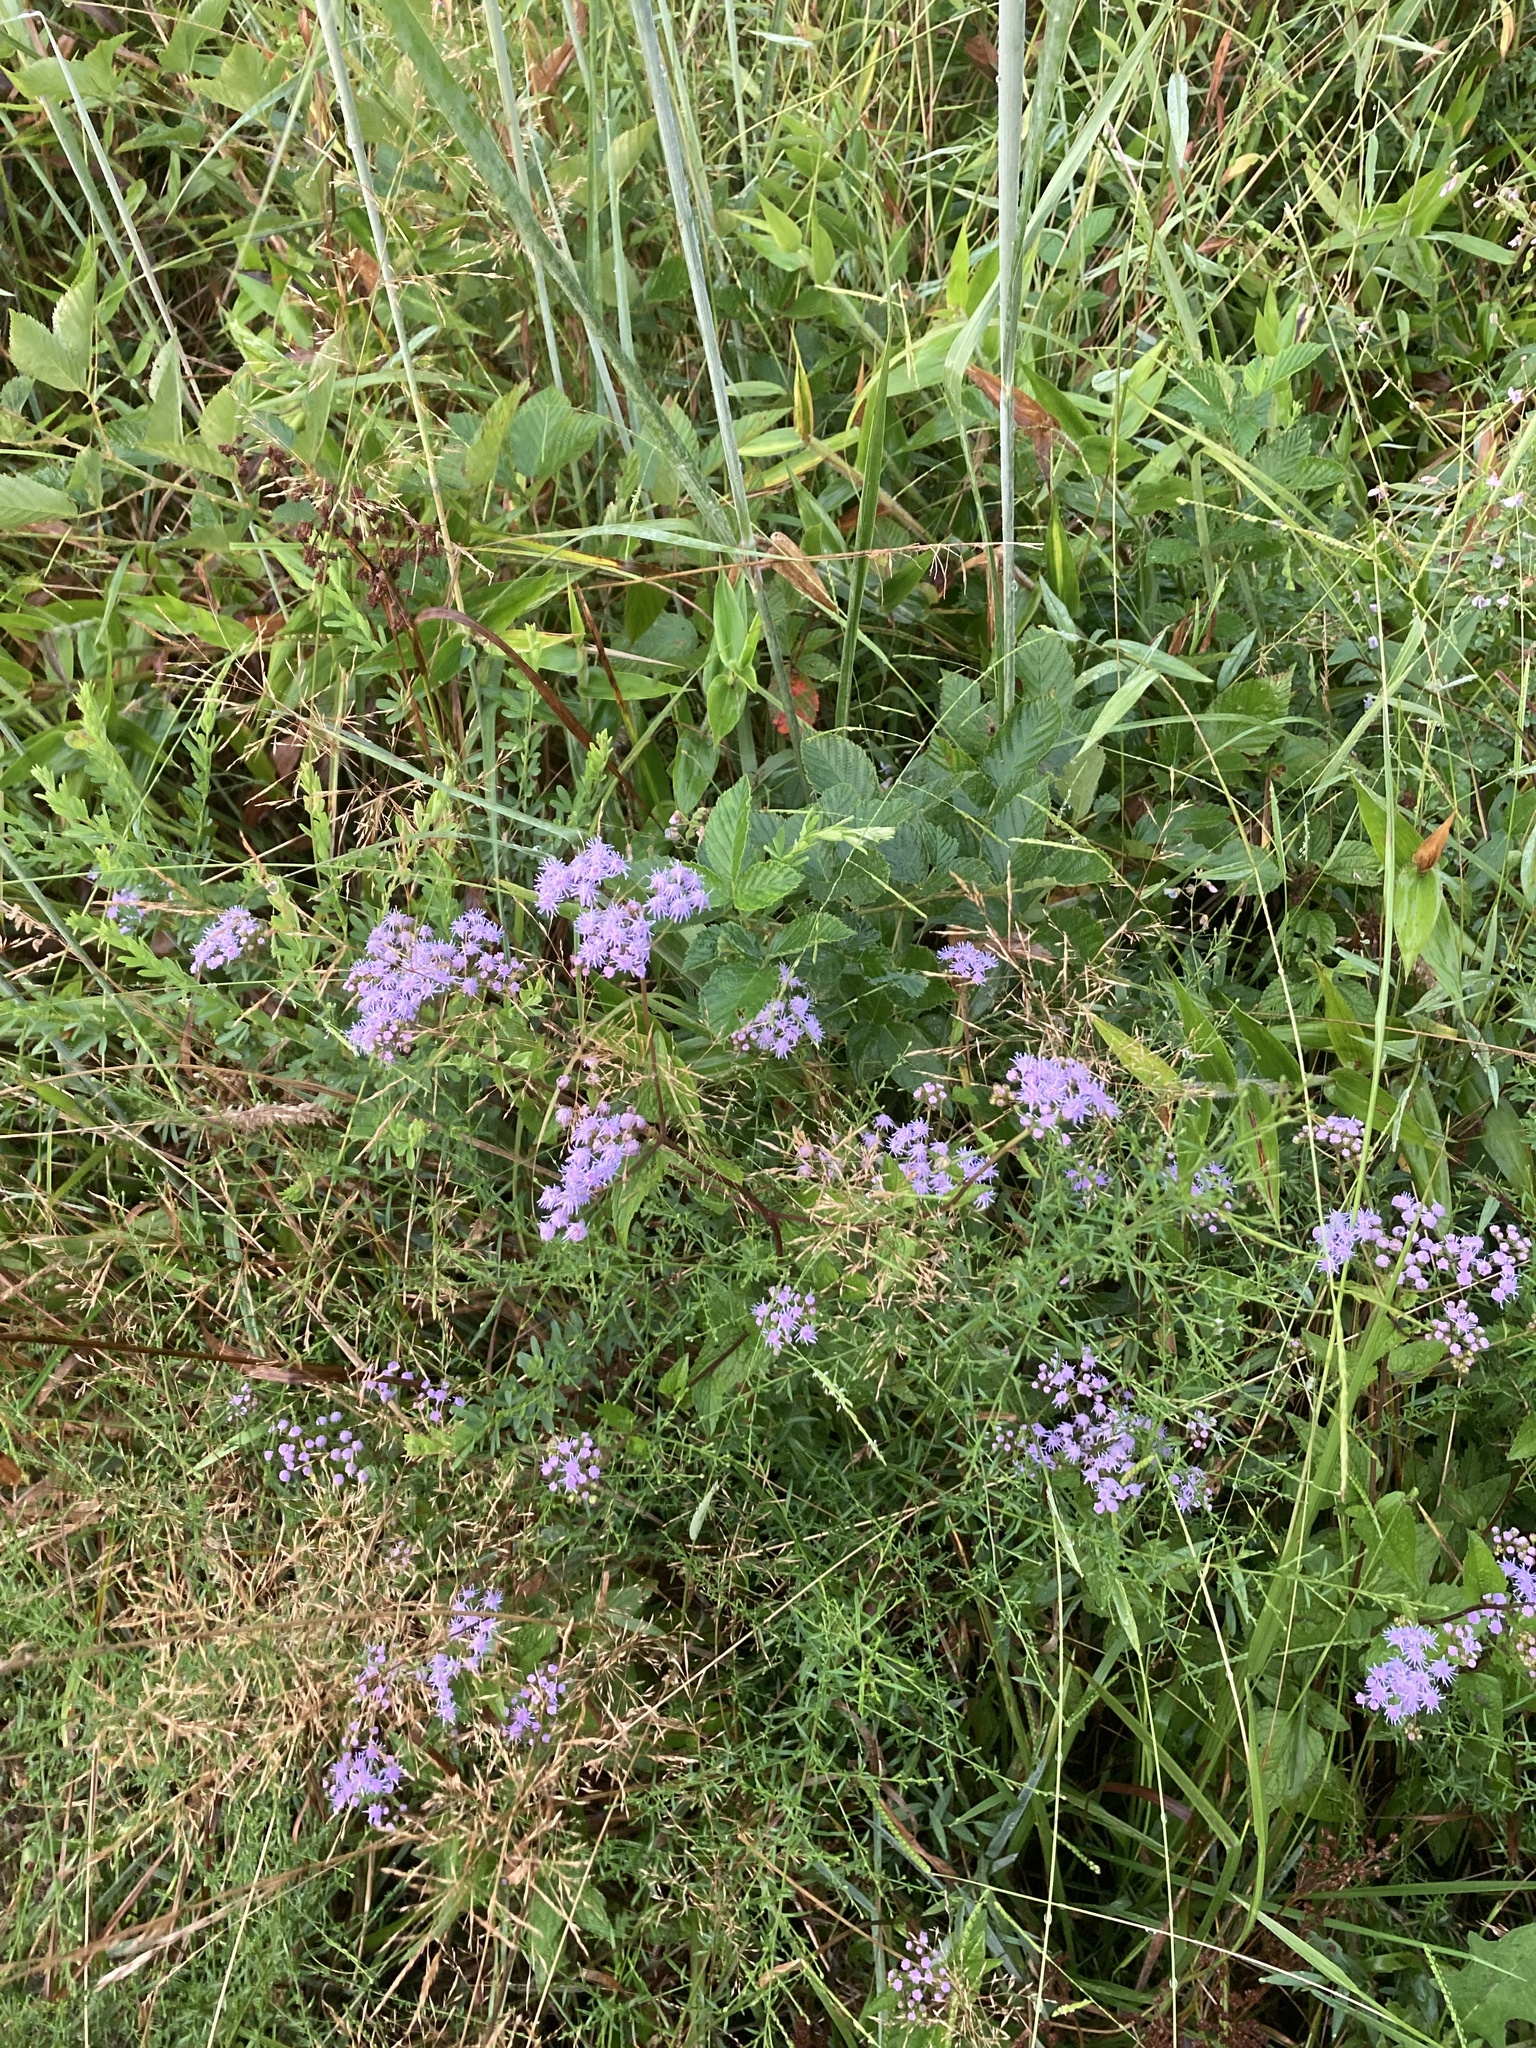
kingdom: Plantae
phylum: Tracheophyta
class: Magnoliopsida
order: Asterales
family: Asteraceae
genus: Conoclinium
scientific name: Conoclinium coelestinum
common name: Blue mistflower
